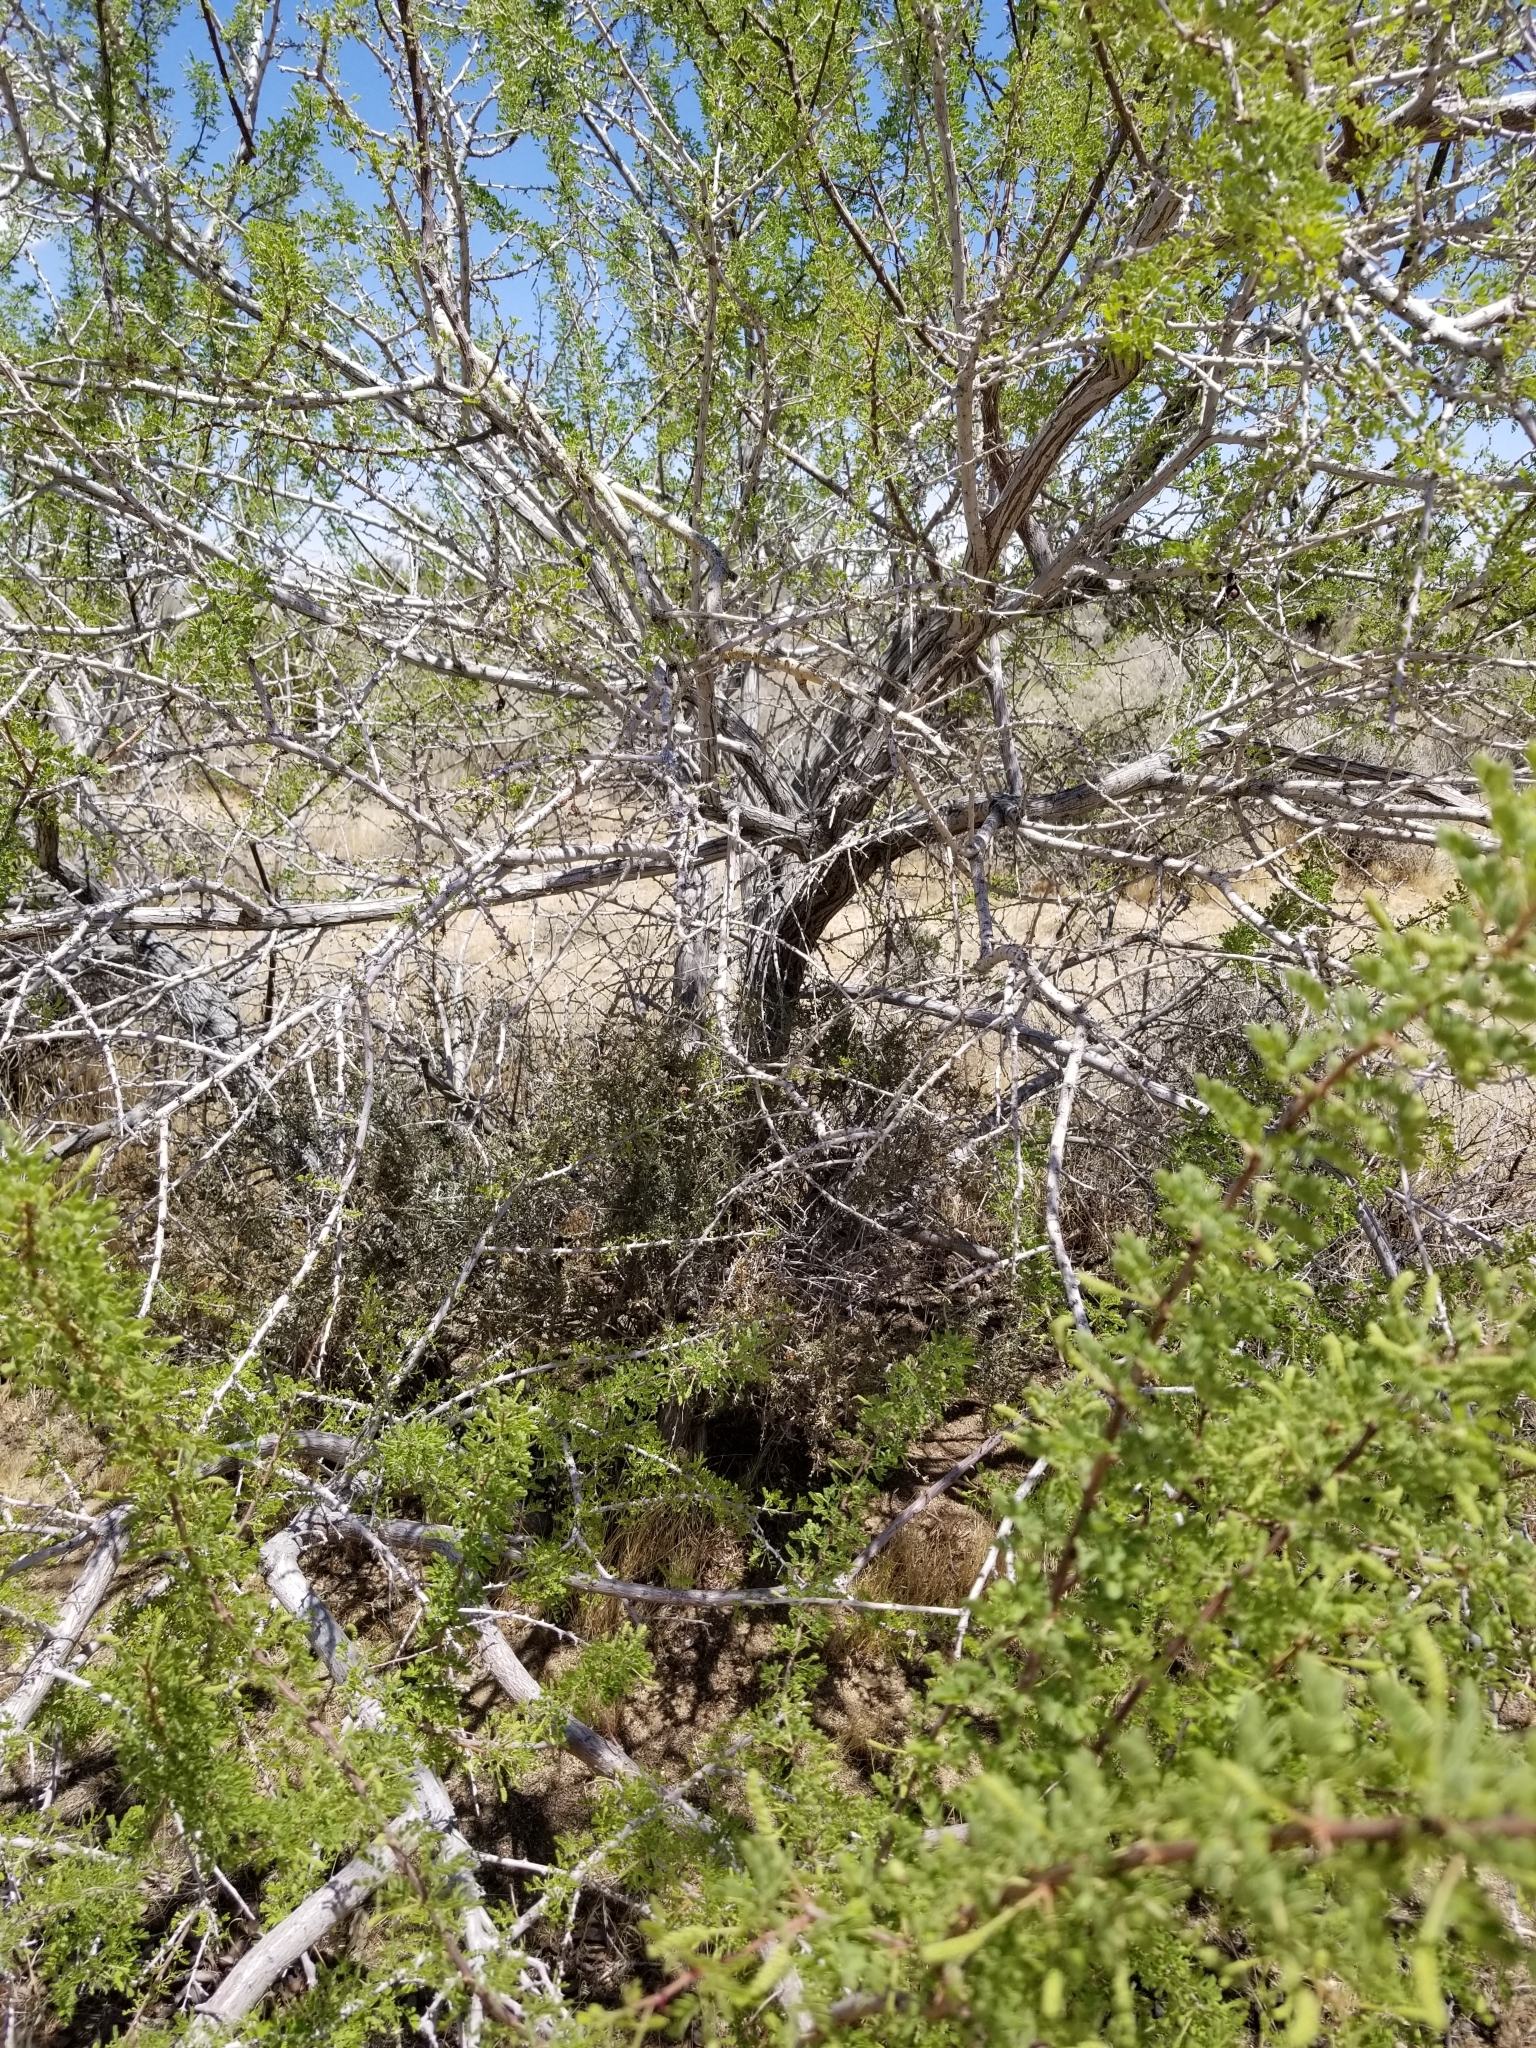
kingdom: Plantae
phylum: Tracheophyta
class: Magnoliopsida
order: Fabales
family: Fabaceae
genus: Senegalia
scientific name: Senegalia greggii
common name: Texas-mimosa
